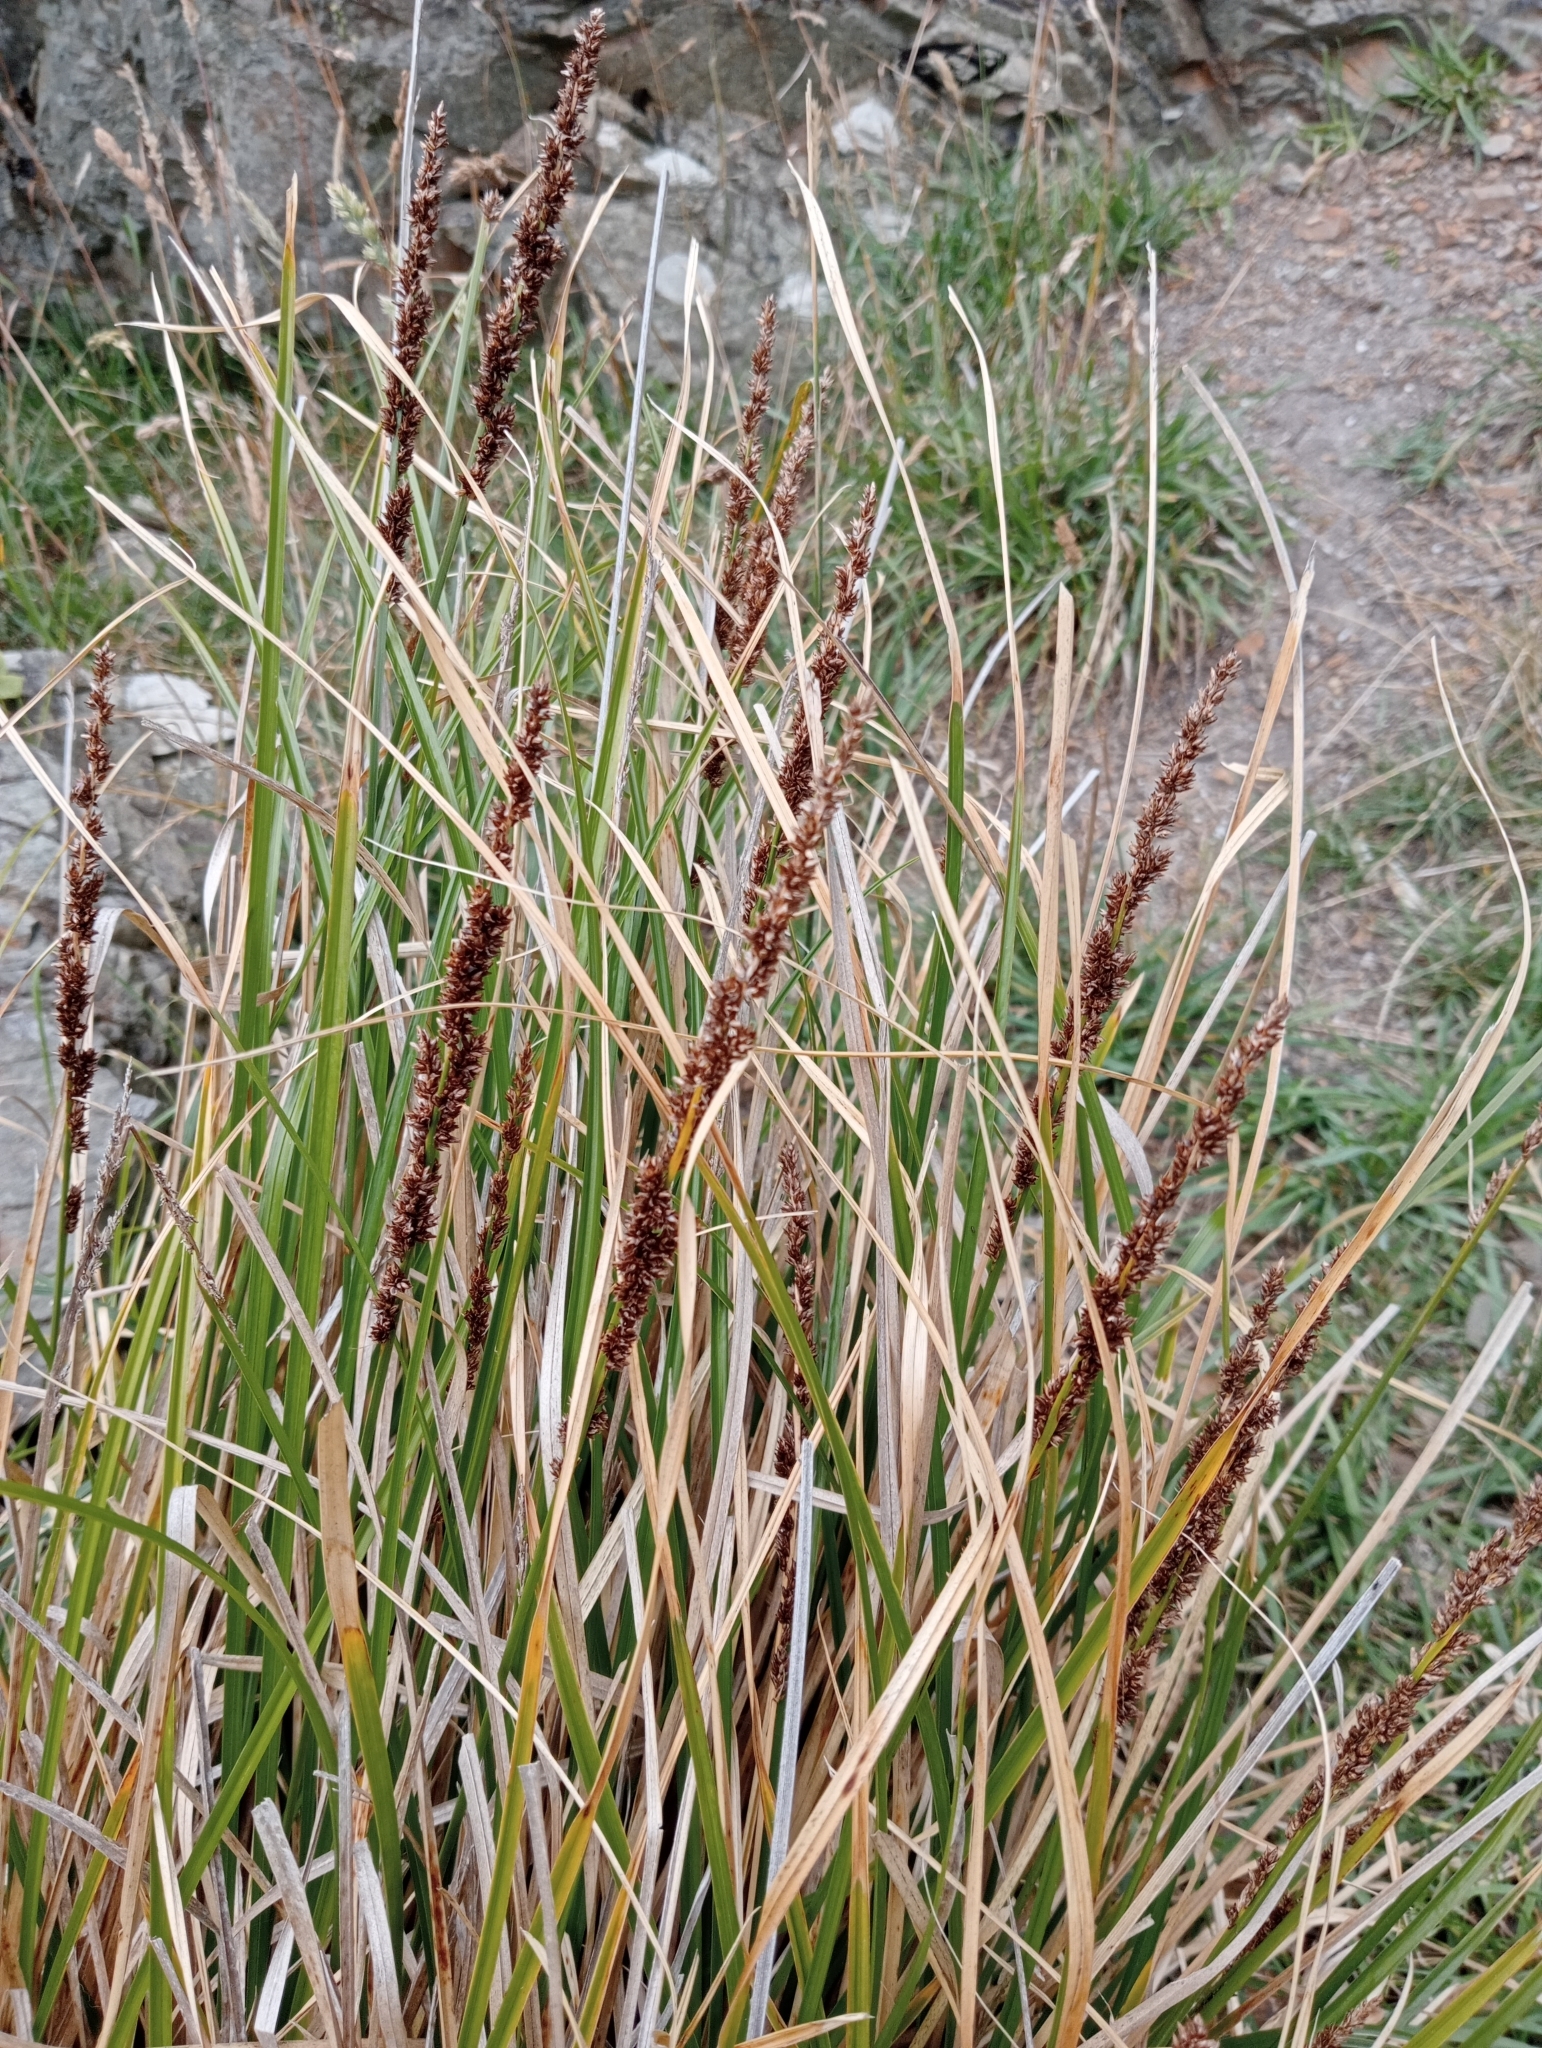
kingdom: Plantae
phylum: Tracheophyta
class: Liliopsida
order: Poales
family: Cyperaceae
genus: Carex
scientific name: Carex virgata
